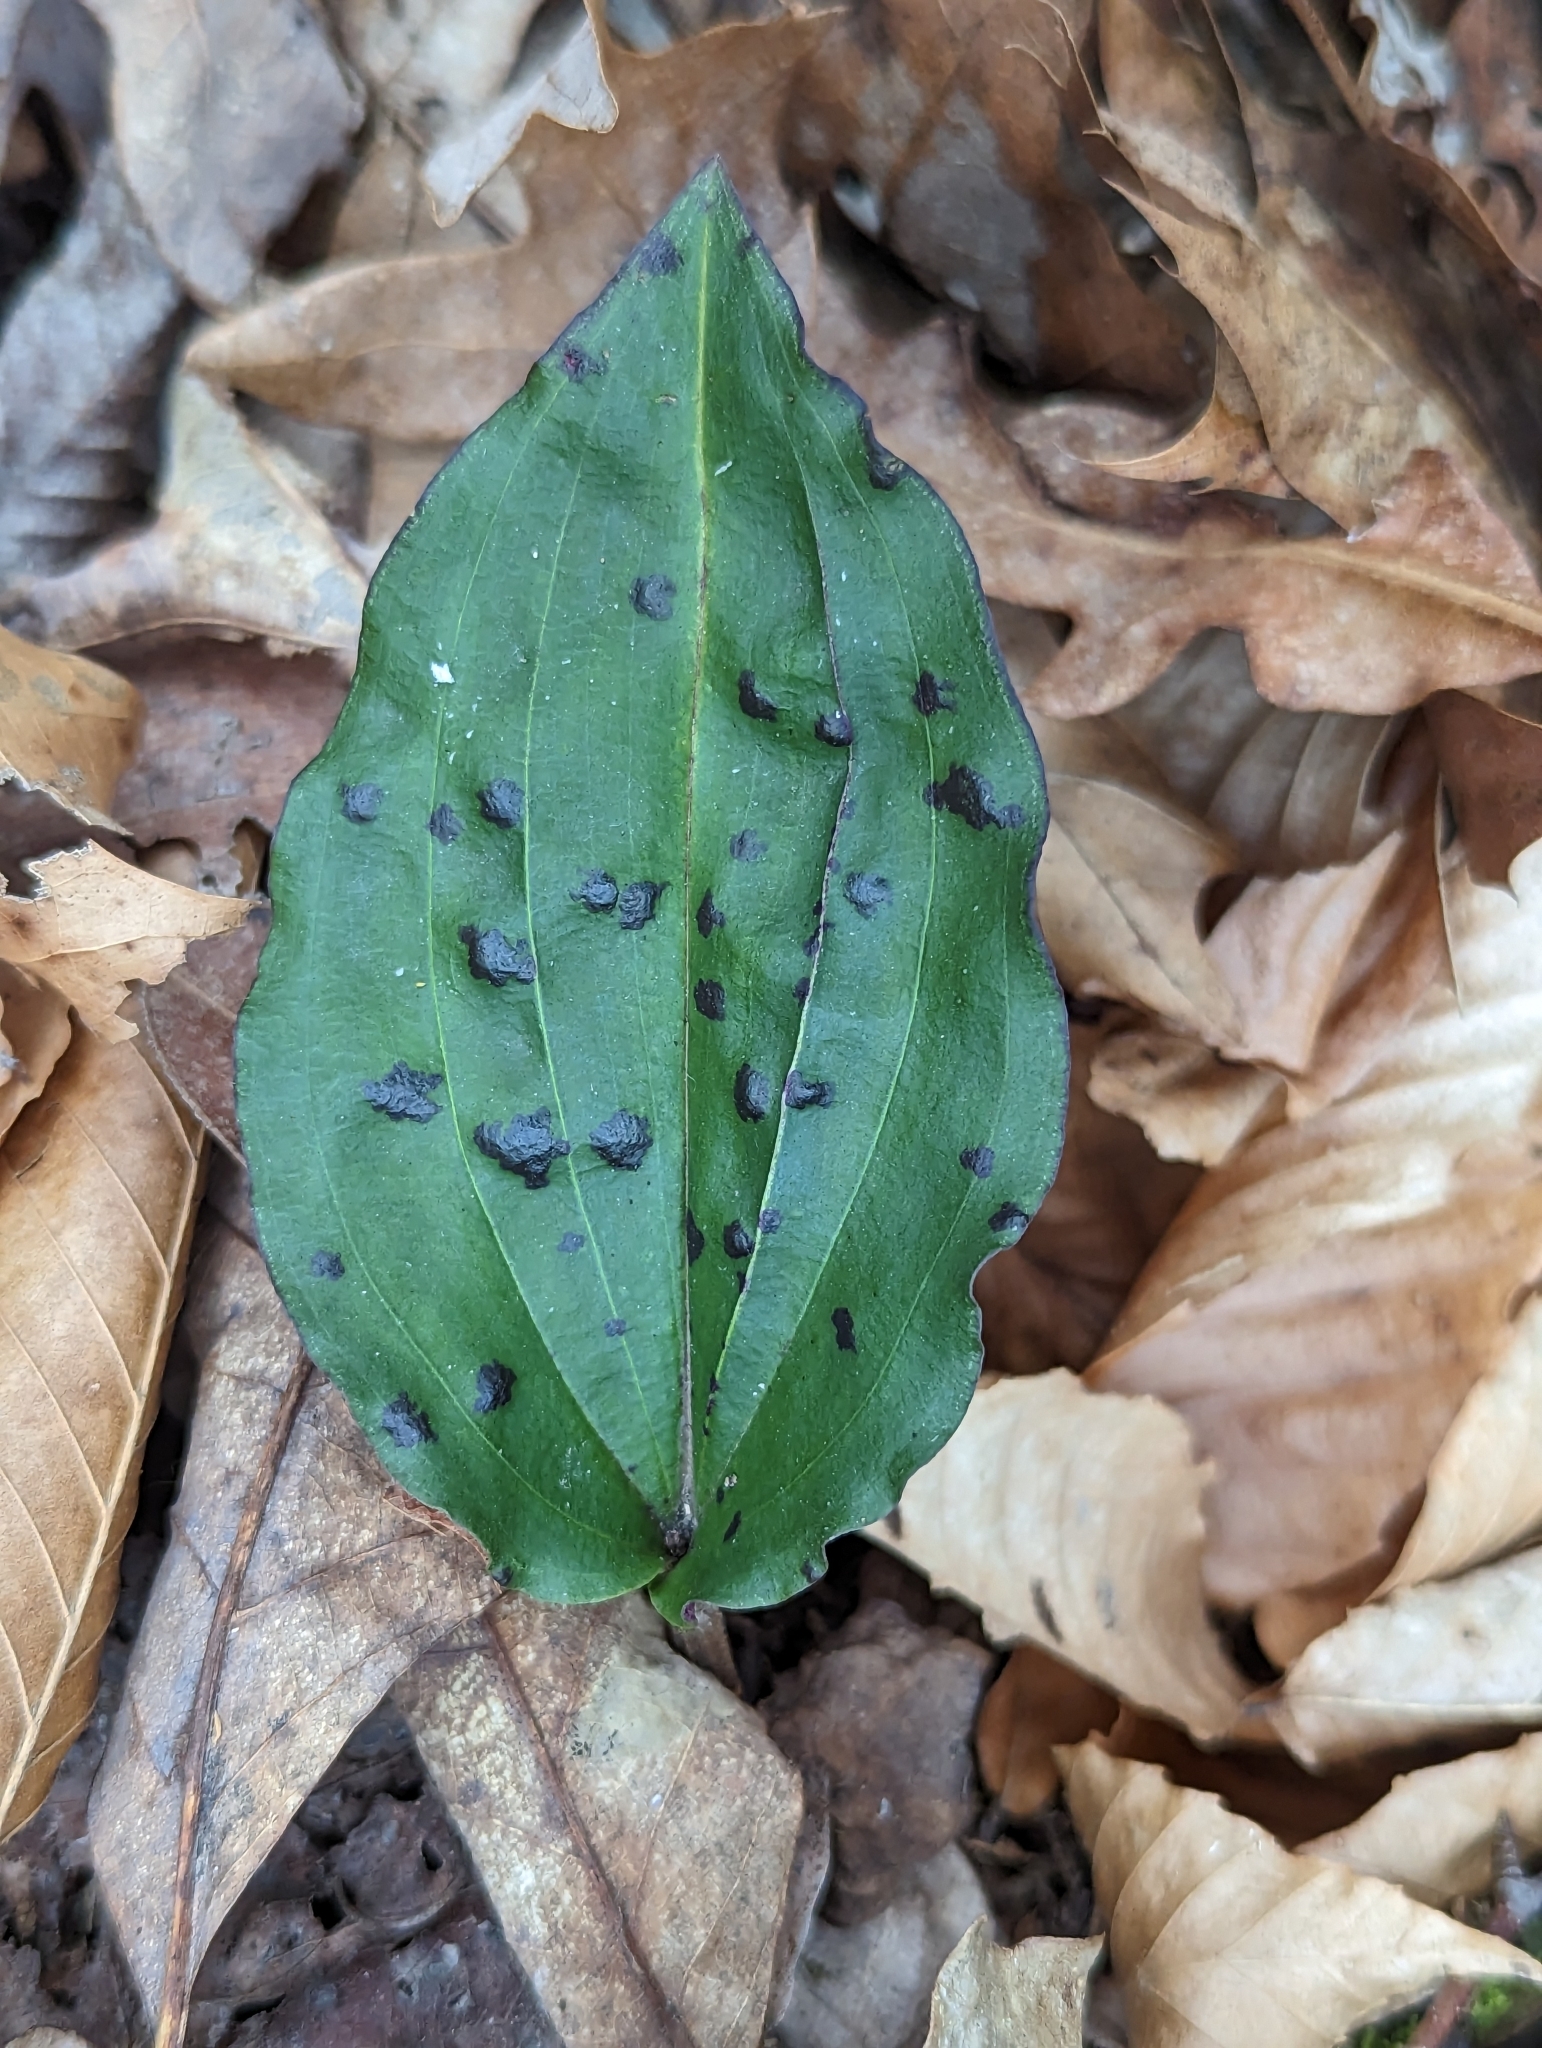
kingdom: Plantae
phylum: Tracheophyta
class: Liliopsida
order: Asparagales
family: Orchidaceae
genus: Tipularia
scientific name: Tipularia discolor
